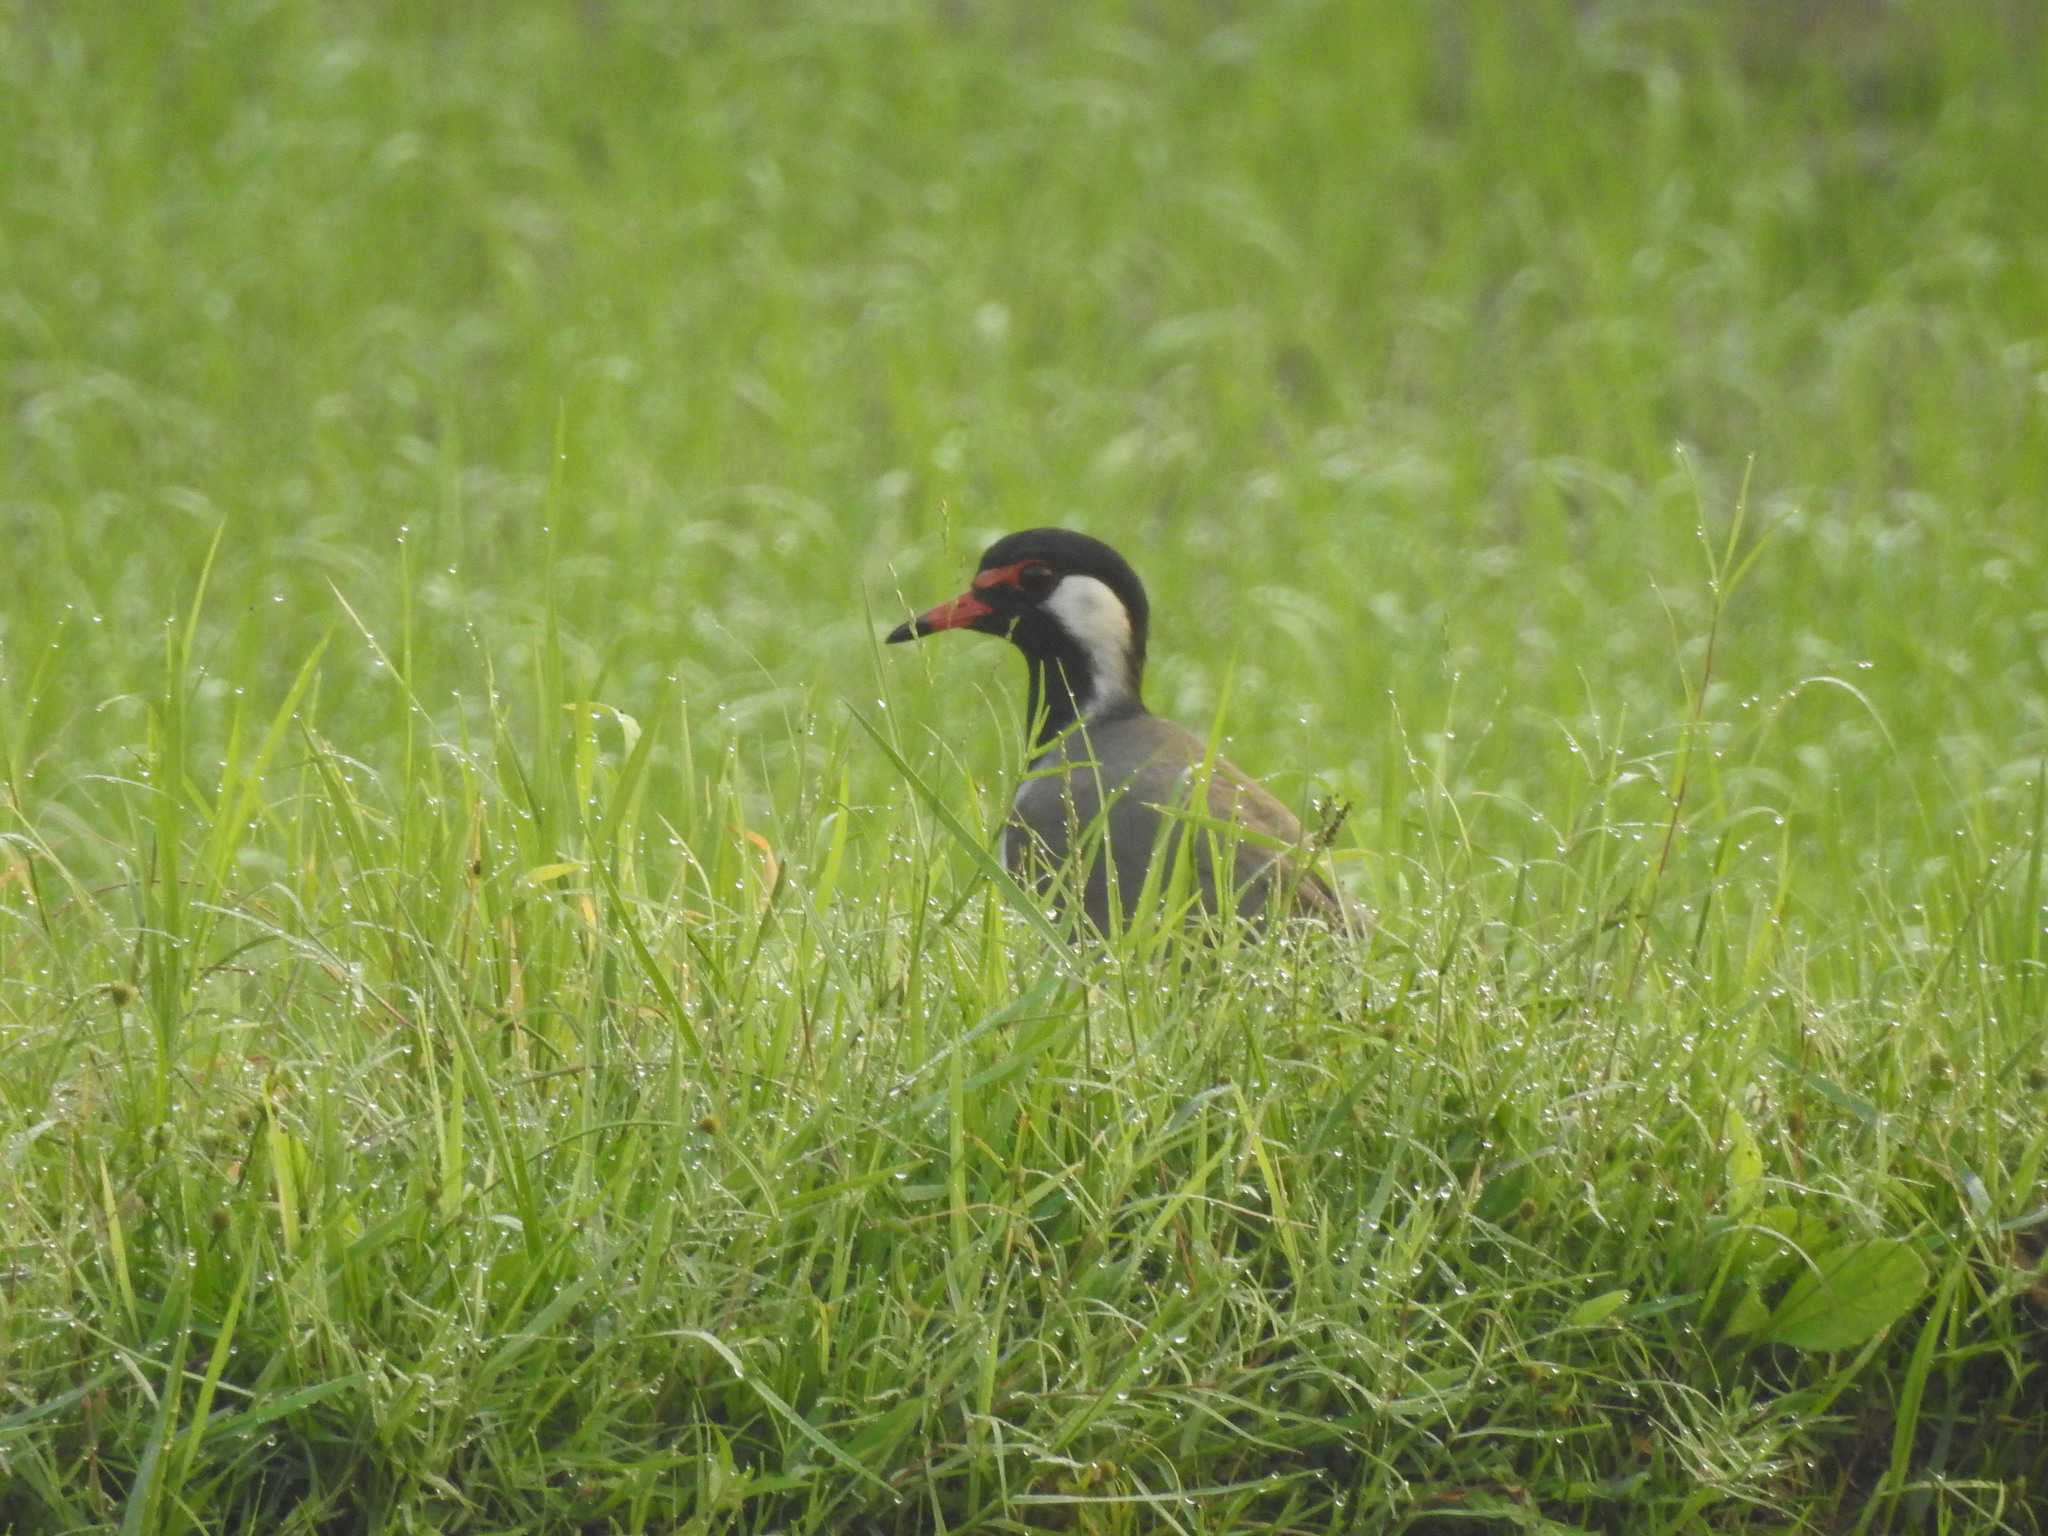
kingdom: Animalia
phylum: Chordata
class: Aves
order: Charadriiformes
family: Charadriidae
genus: Vanellus
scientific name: Vanellus indicus
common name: Red-wattled lapwing
